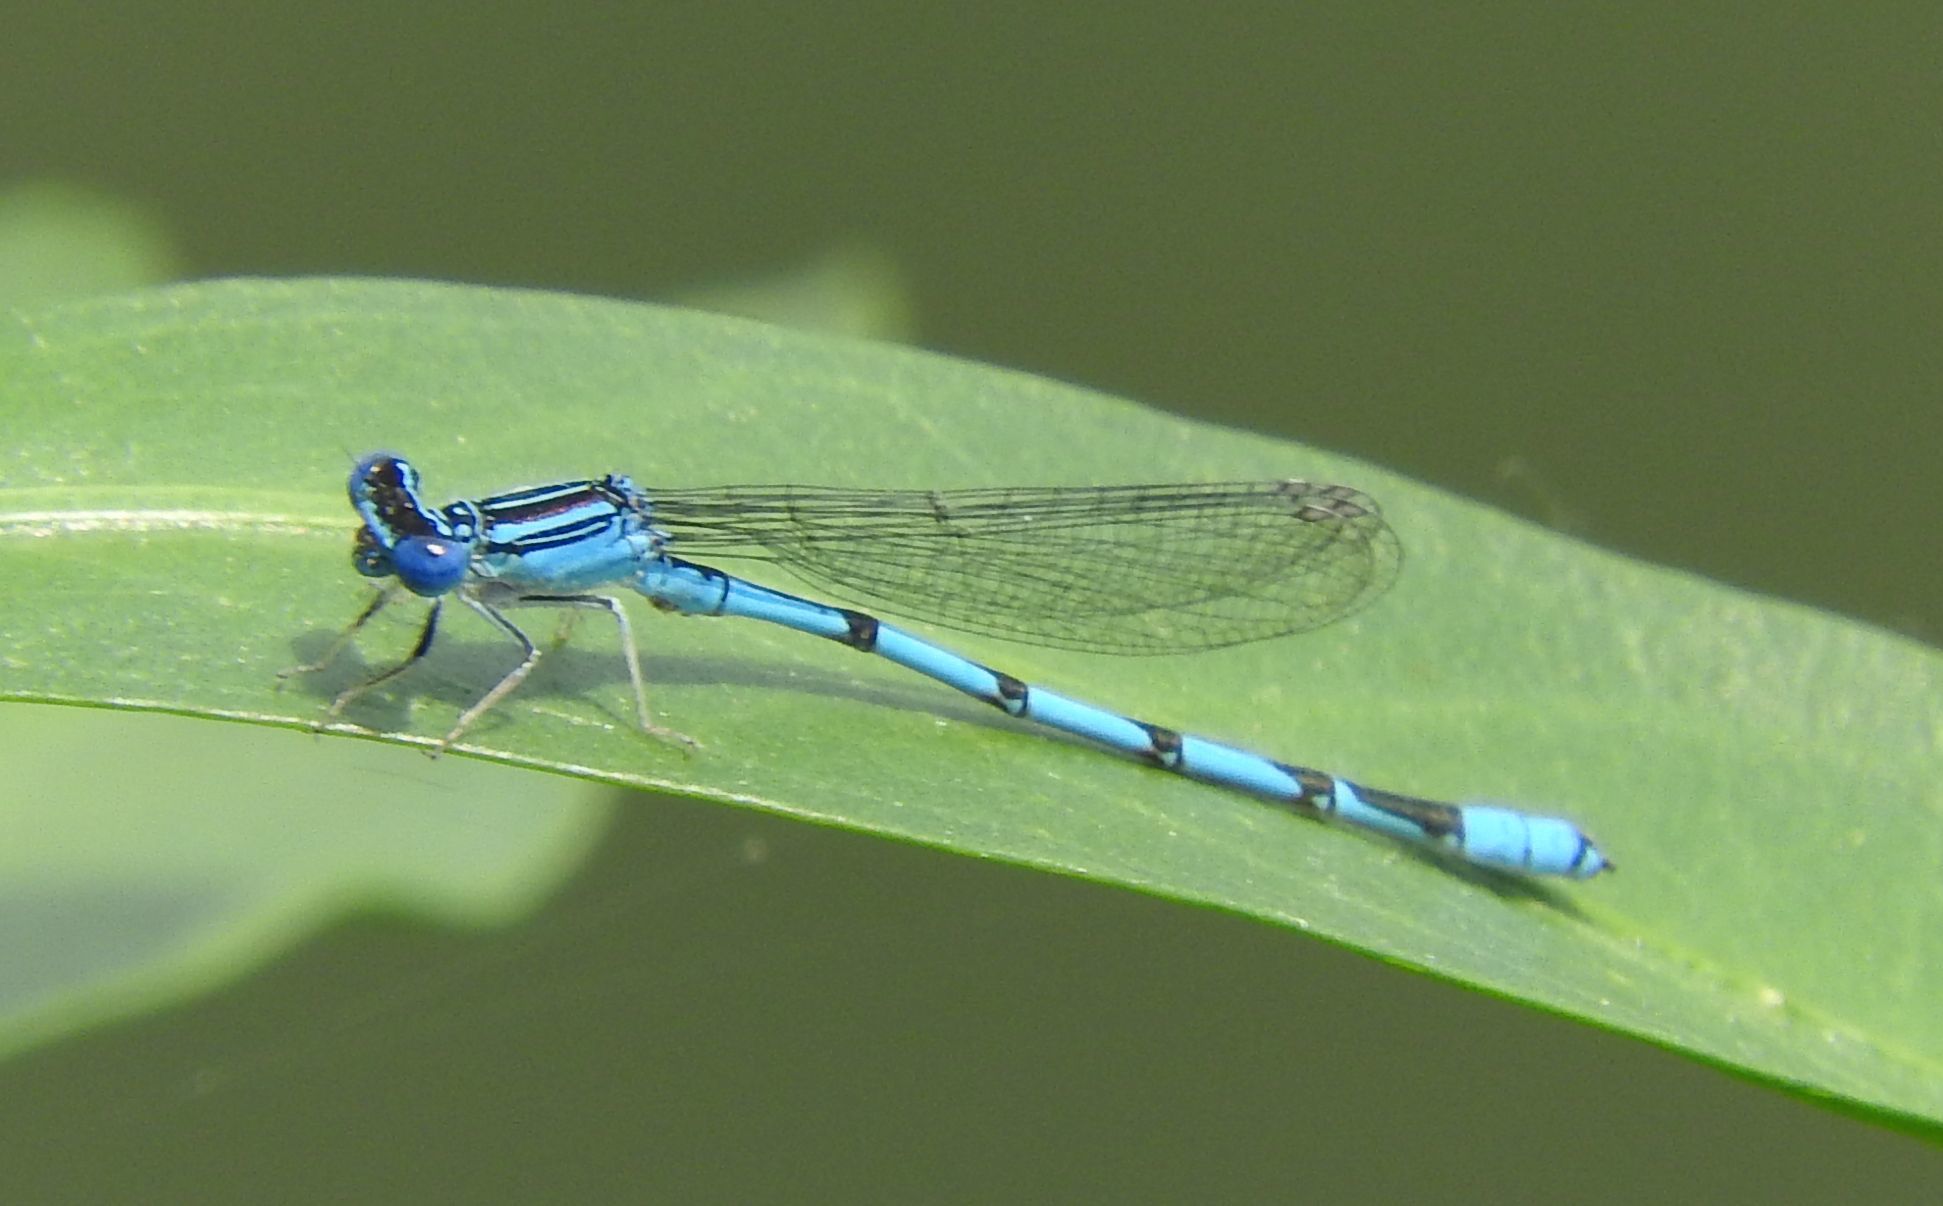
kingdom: Animalia
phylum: Arthropoda
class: Insecta
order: Odonata
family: Coenagrionidae
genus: Enallagma
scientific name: Enallagma basidens
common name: Double-striped bluet
